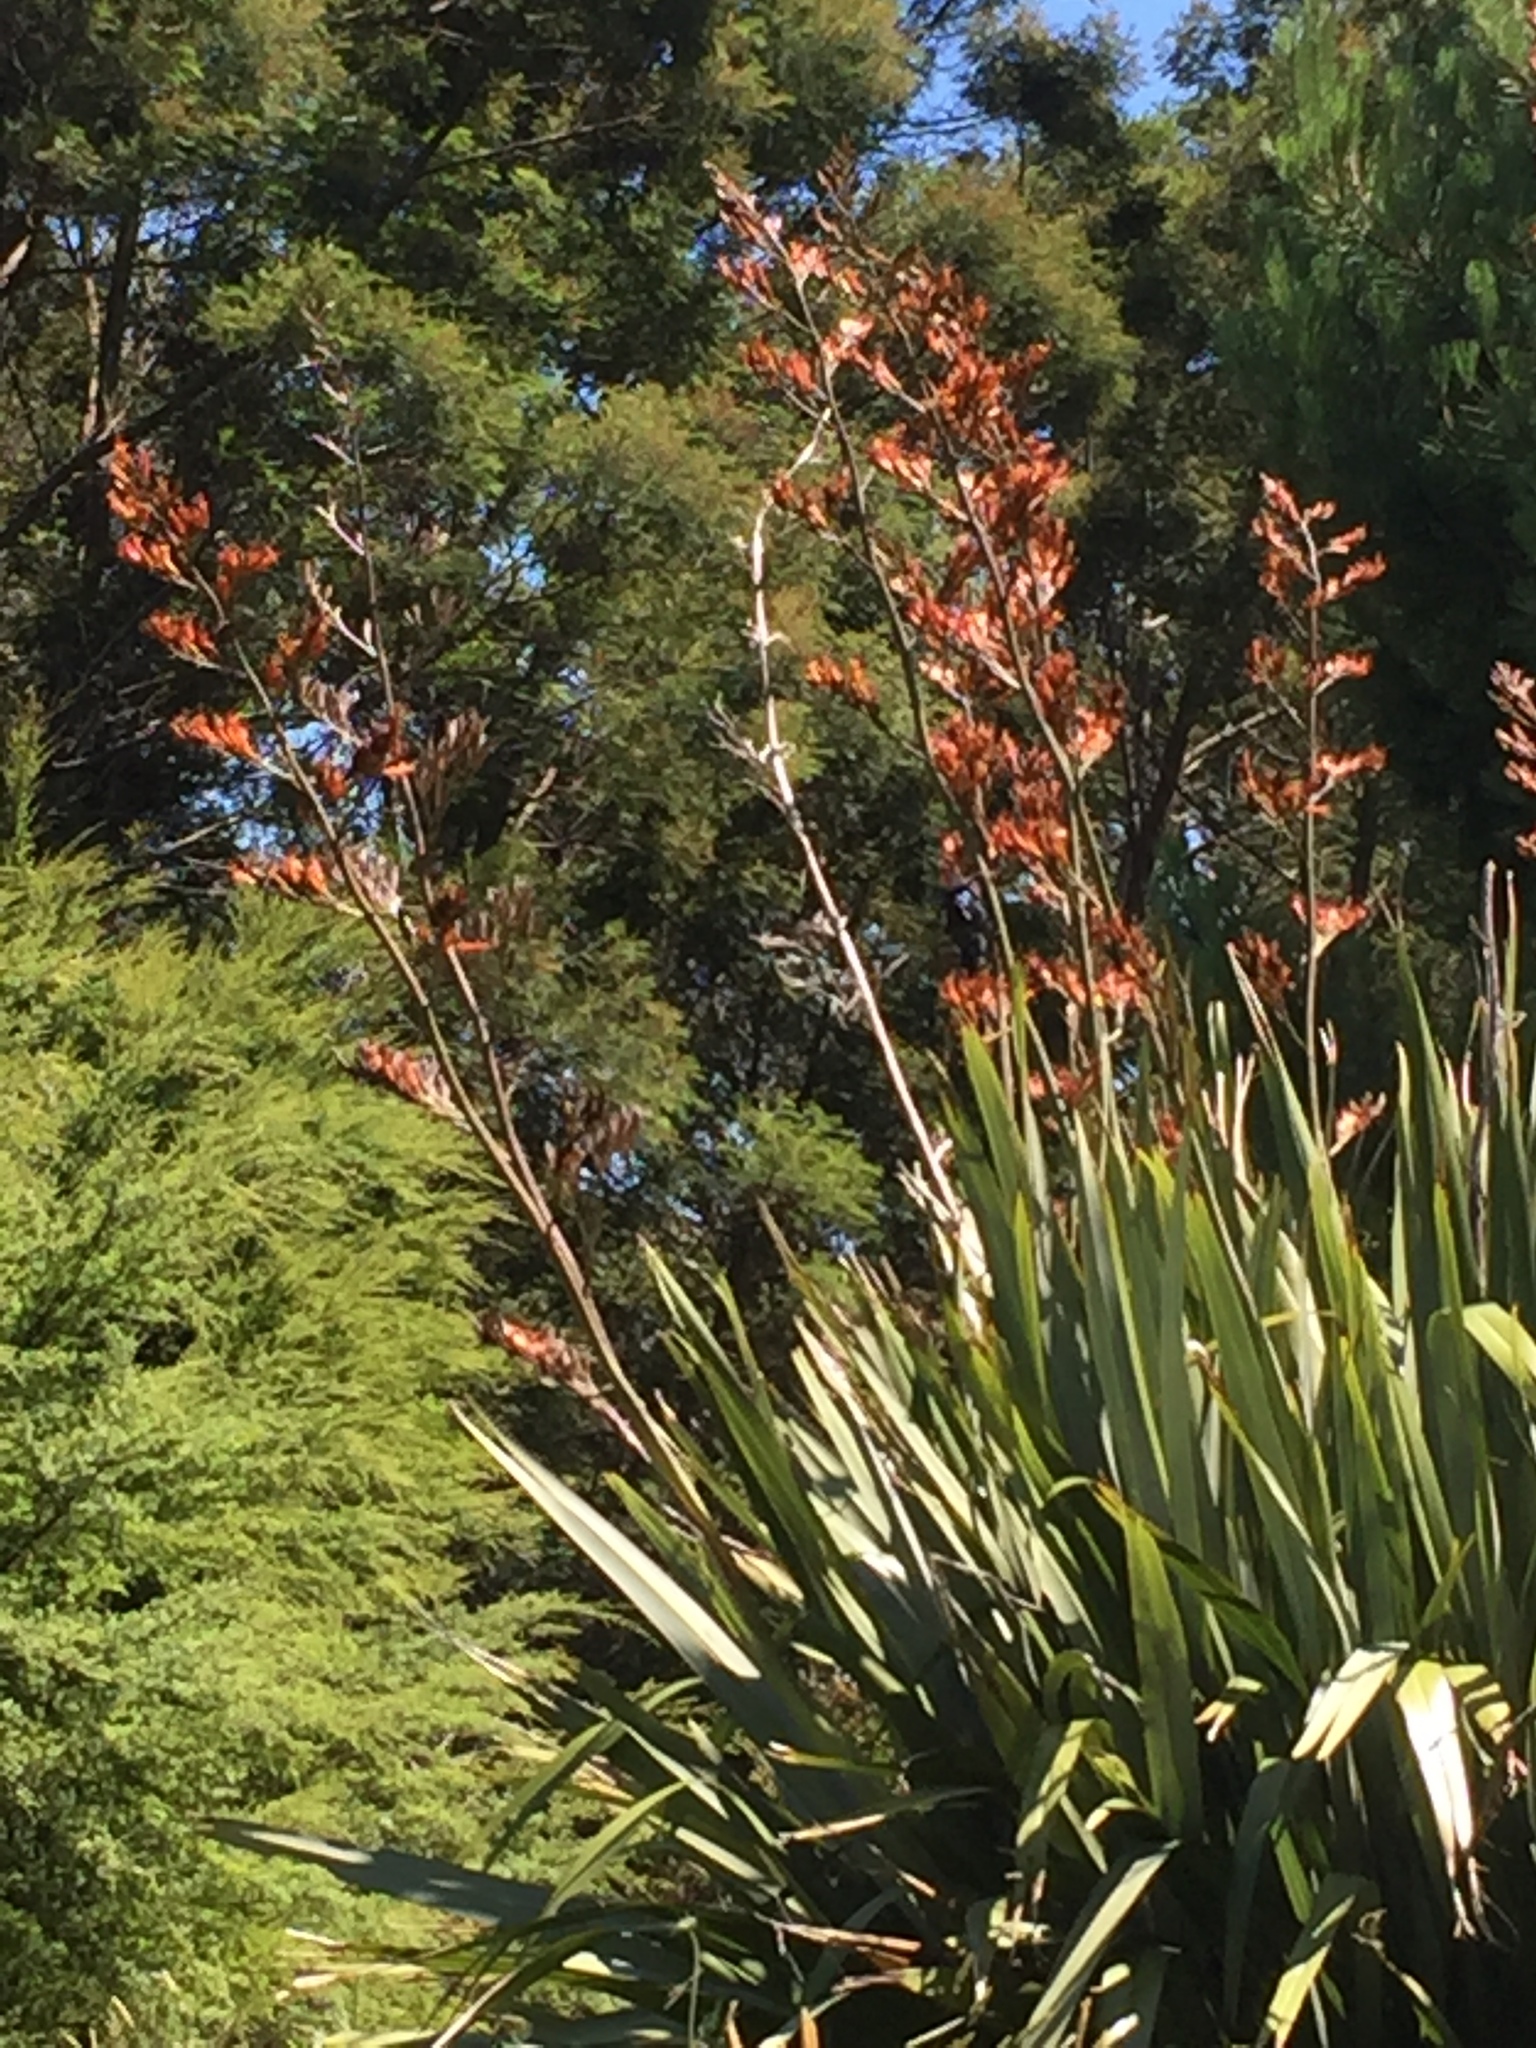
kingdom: Plantae
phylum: Tracheophyta
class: Liliopsida
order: Asparagales
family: Asphodelaceae
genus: Phormium
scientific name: Phormium tenax
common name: New zealand flax
